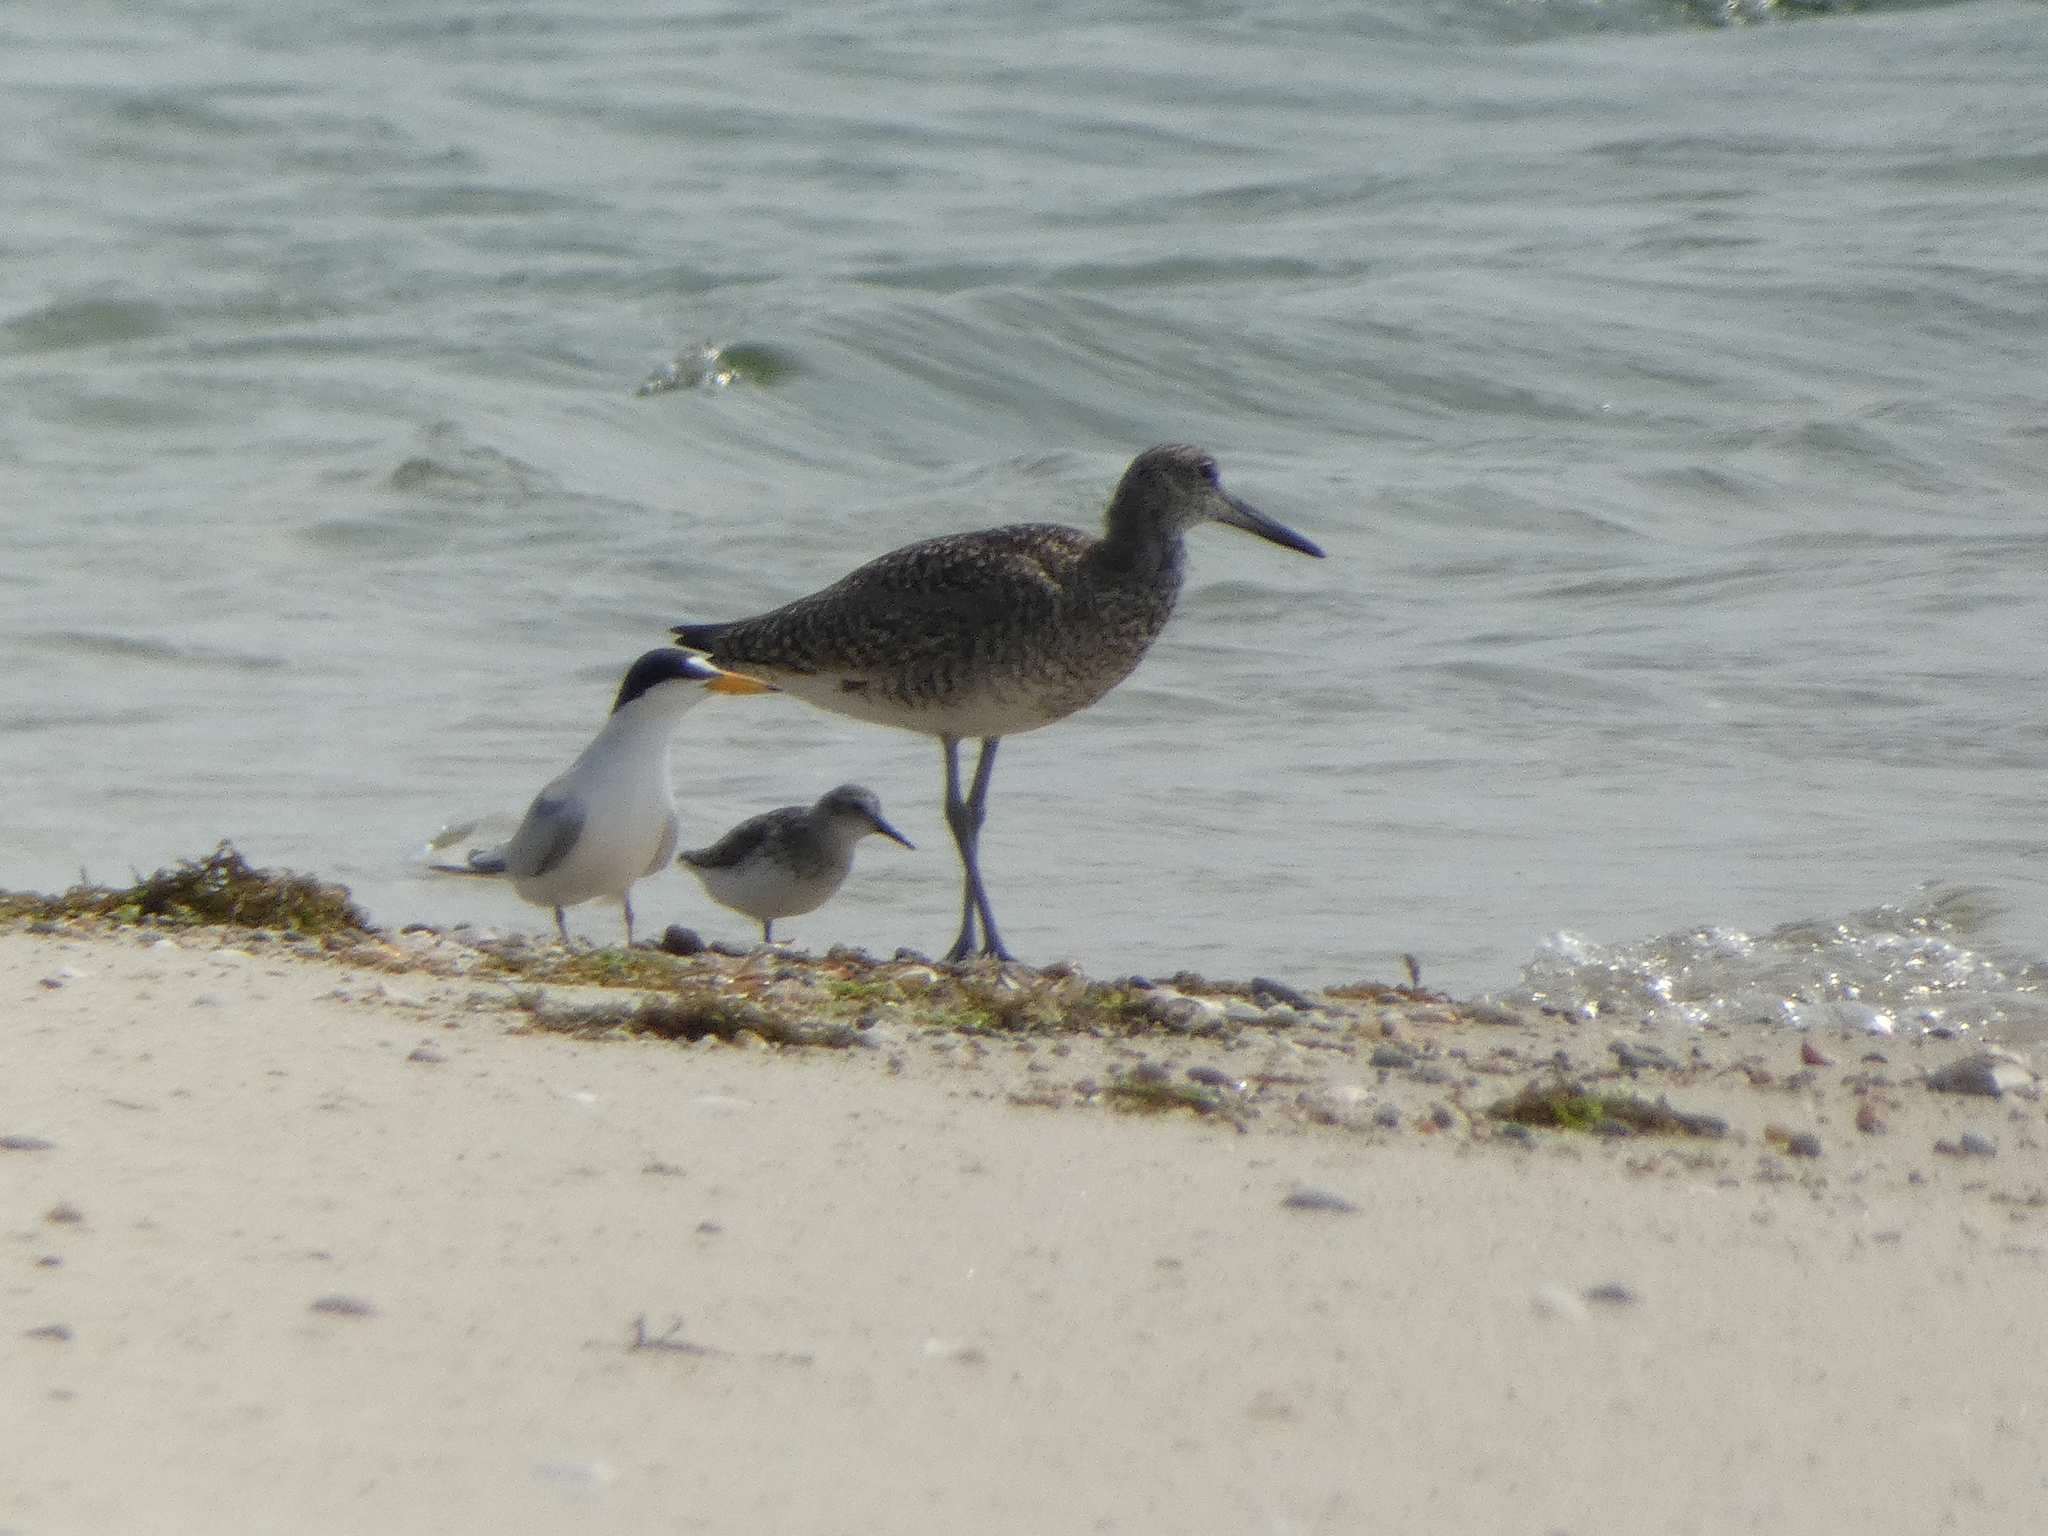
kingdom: Animalia
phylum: Chordata
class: Aves
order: Charadriiformes
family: Scolopacidae
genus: Tringa
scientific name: Tringa semipalmata
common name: Willet
